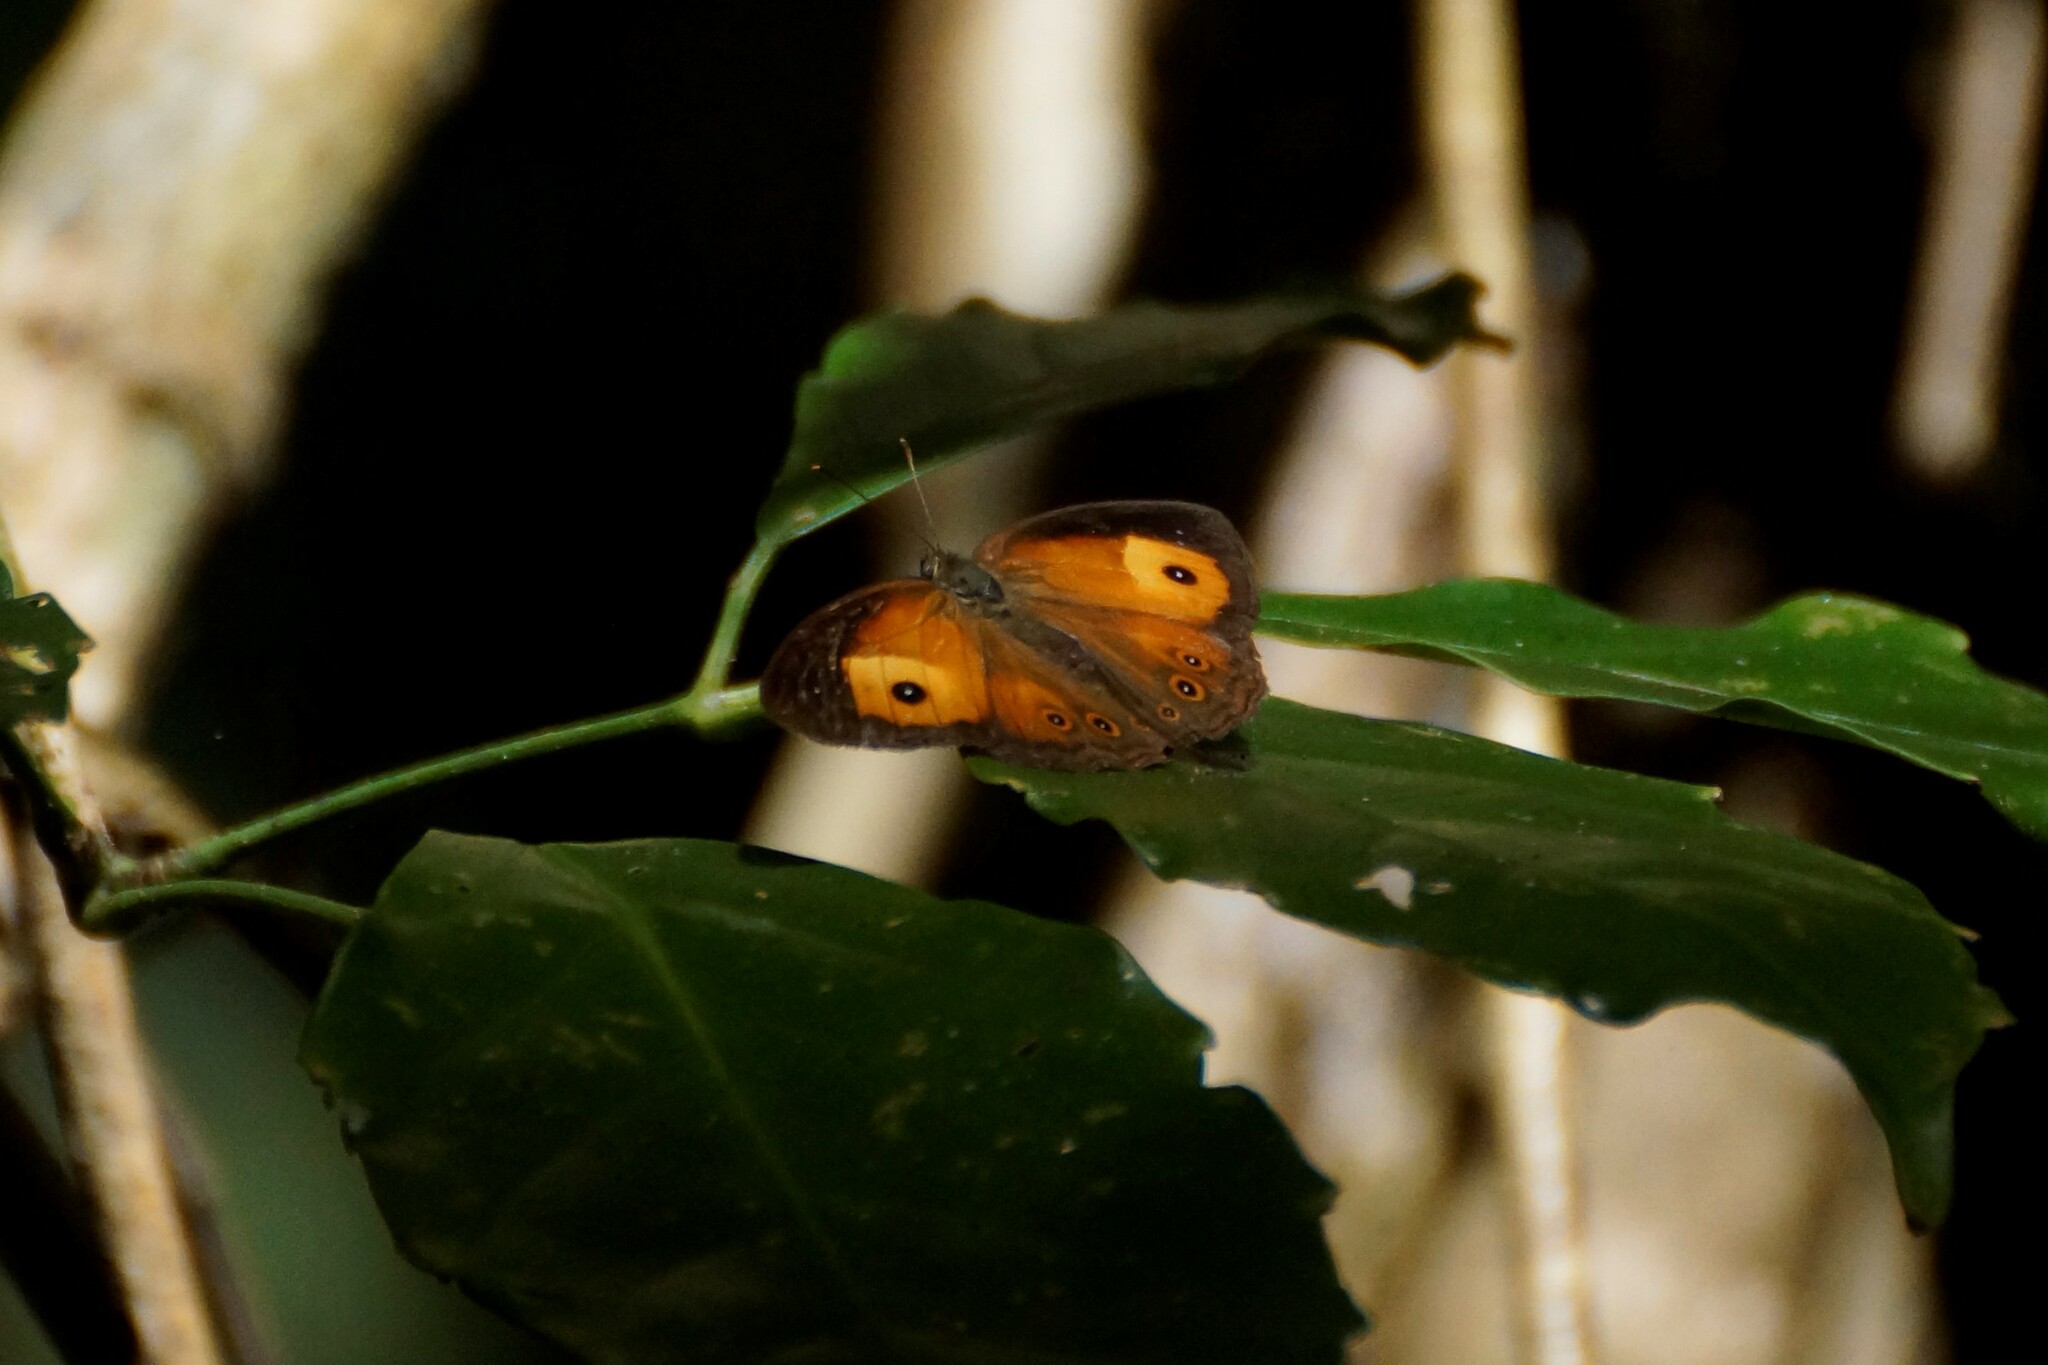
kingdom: Animalia
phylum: Arthropoda
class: Insecta
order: Lepidoptera
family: Nymphalidae
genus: Mycalesis
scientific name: Mycalesis terminus
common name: Orange bushbrown
